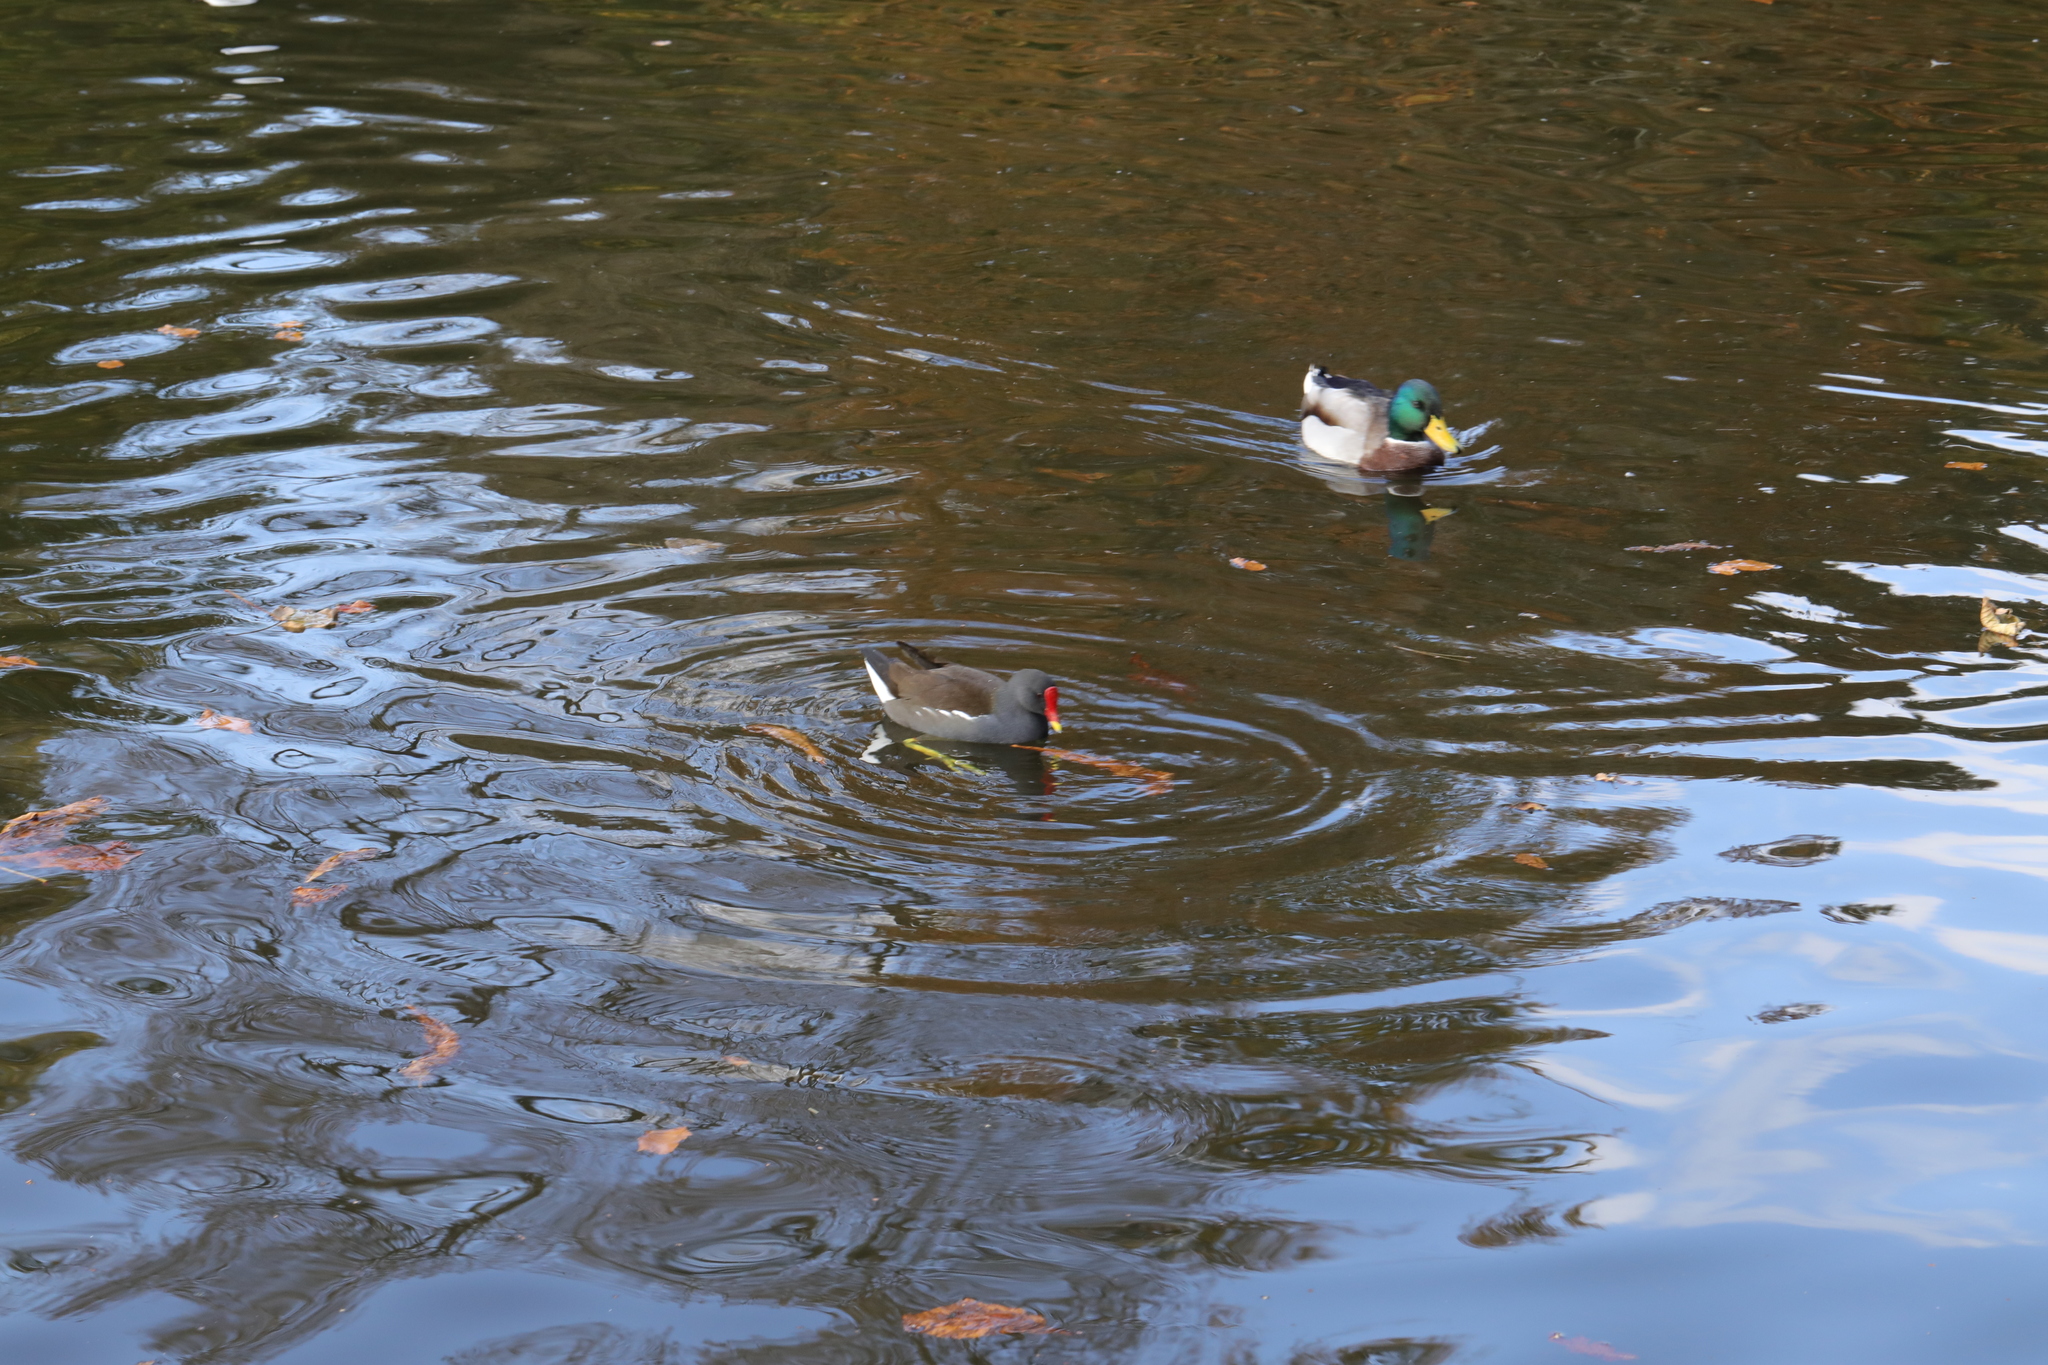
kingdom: Animalia
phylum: Chordata
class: Aves
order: Gruiformes
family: Rallidae
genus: Gallinula
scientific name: Gallinula chloropus
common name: Common moorhen
